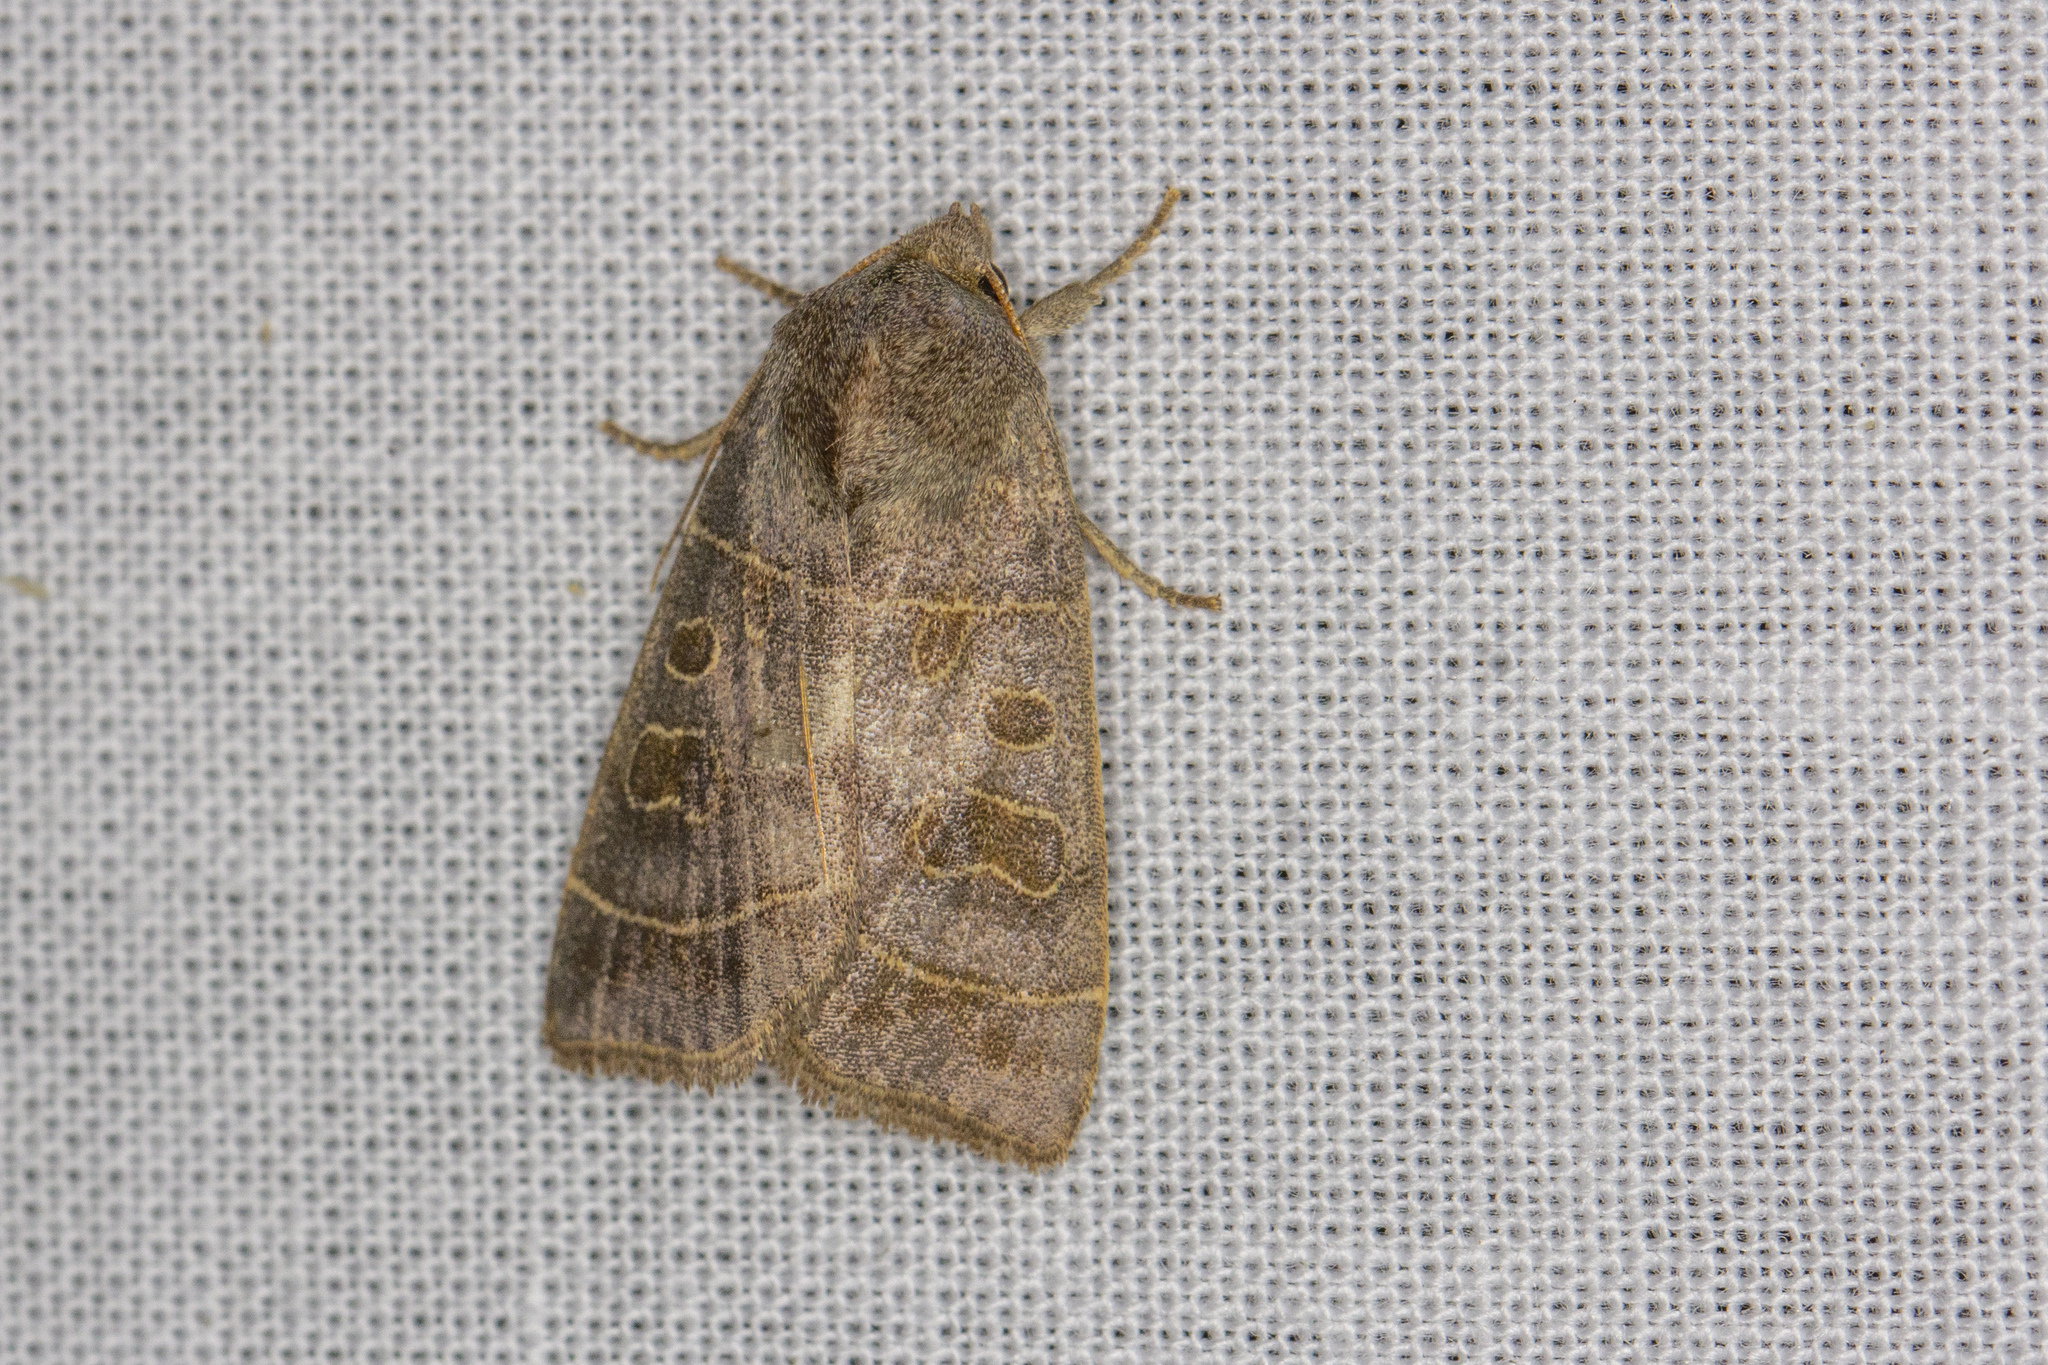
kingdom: Animalia
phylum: Arthropoda
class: Insecta
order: Lepidoptera
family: Noctuidae
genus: Ipimorpha
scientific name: Ipimorpha subtusa
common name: Olive
